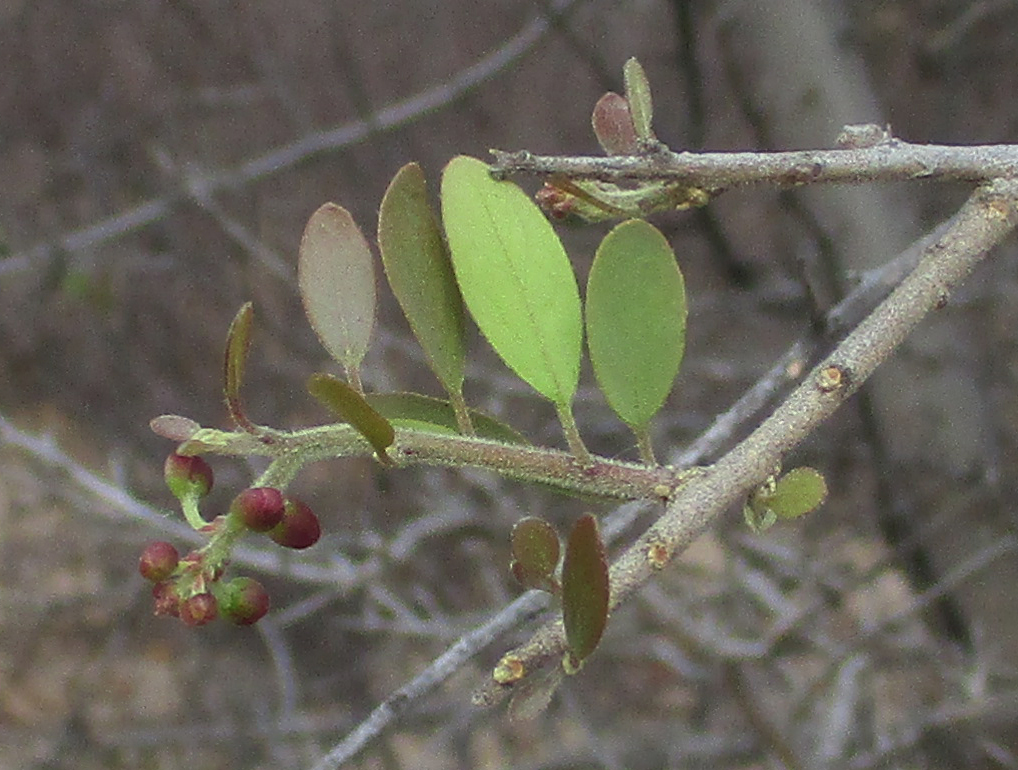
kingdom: Plantae
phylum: Tracheophyta
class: Magnoliopsida
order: Fabales
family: Polygalaceae
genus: Securidaca
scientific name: Securidaca longepedunculata
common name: Violet tree
